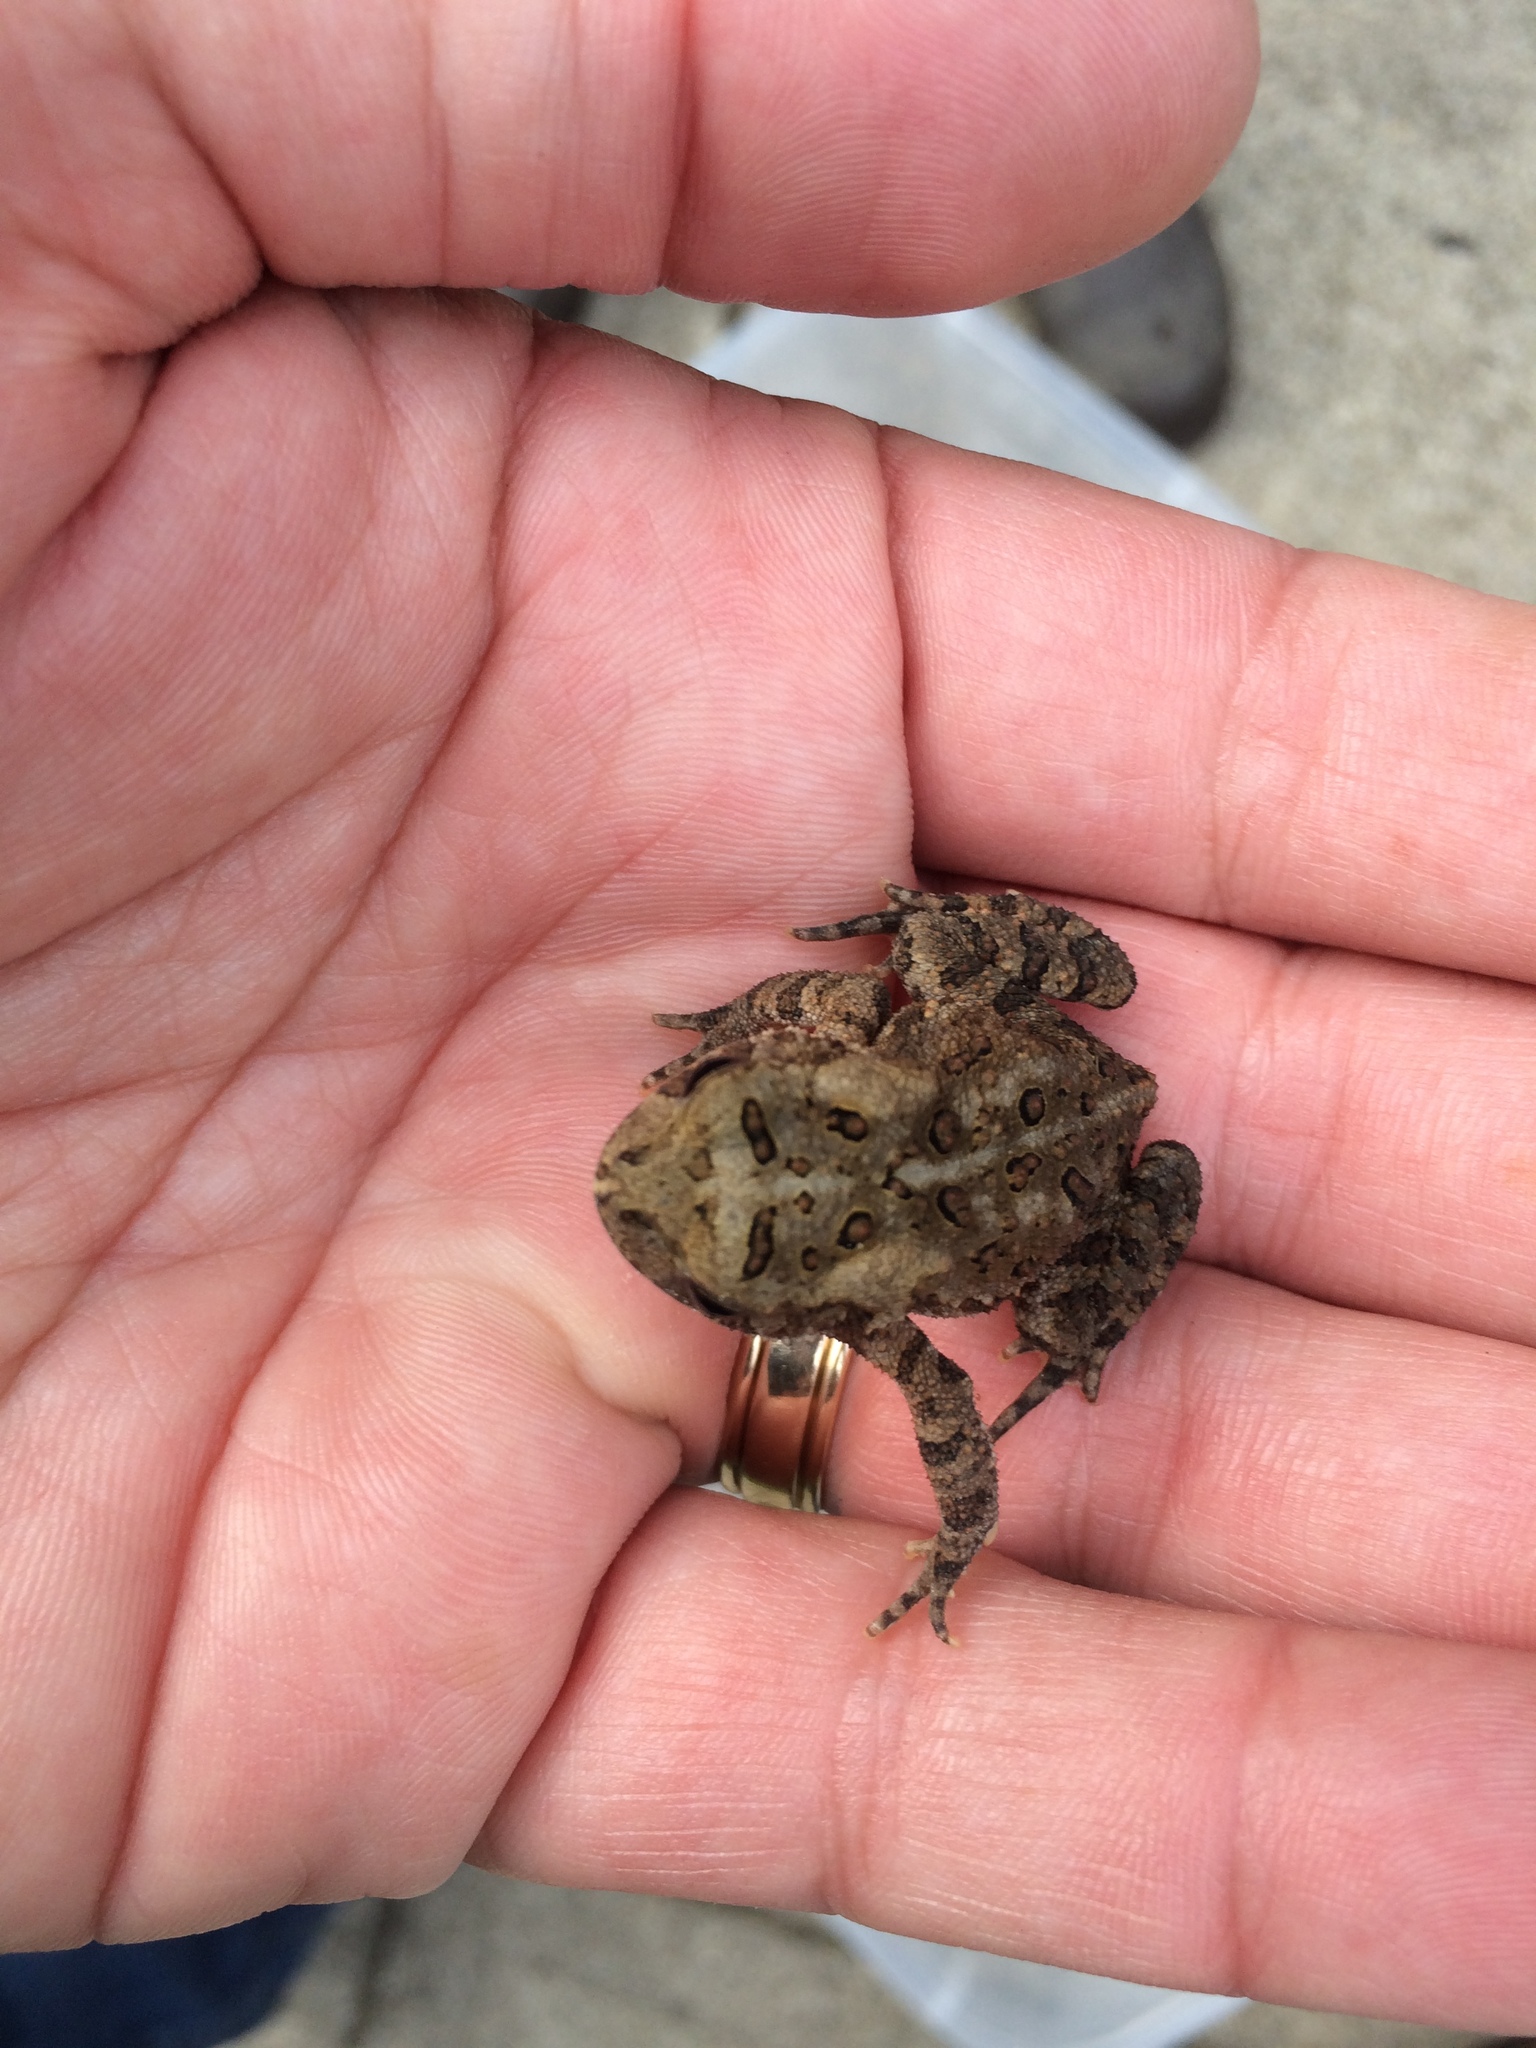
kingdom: Animalia
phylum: Chordata
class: Amphibia
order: Anura
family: Bufonidae
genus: Anaxyrus
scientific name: Anaxyrus americanus
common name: American toad
